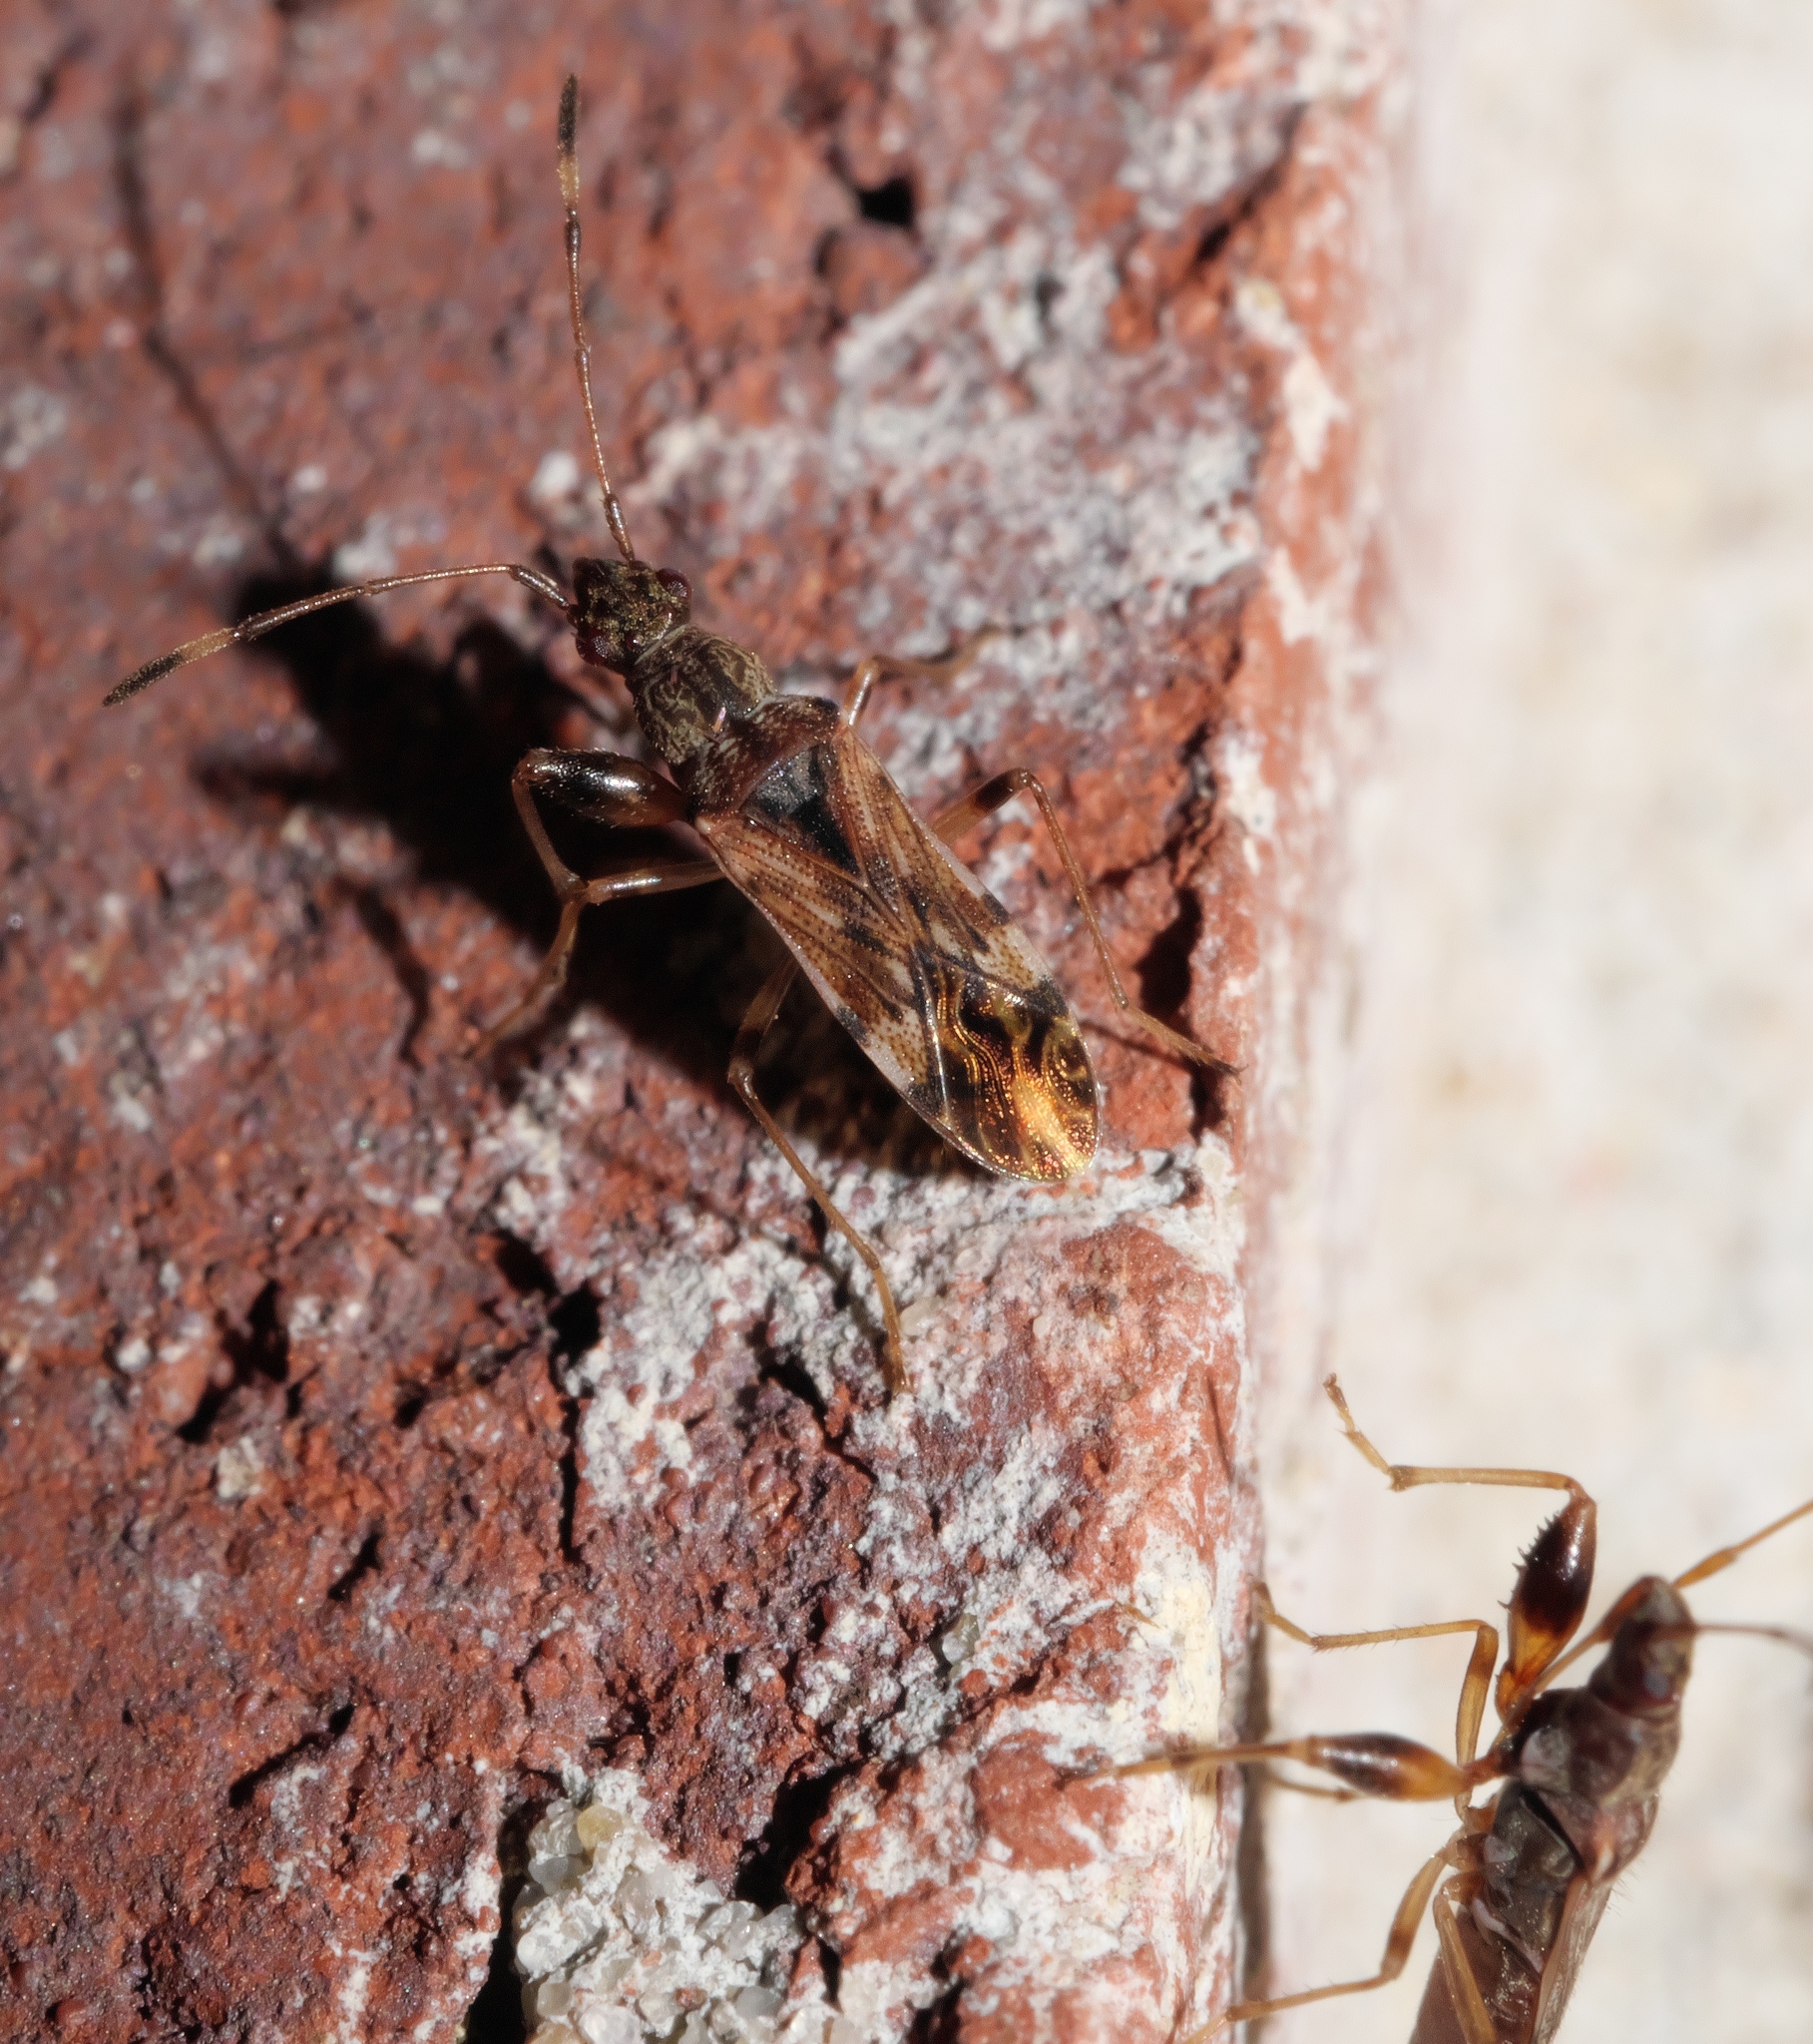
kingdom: Animalia
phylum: Arthropoda
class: Insecta
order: Hemiptera
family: Rhyparochromidae
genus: Neopamera
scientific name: Neopamera albocincta
